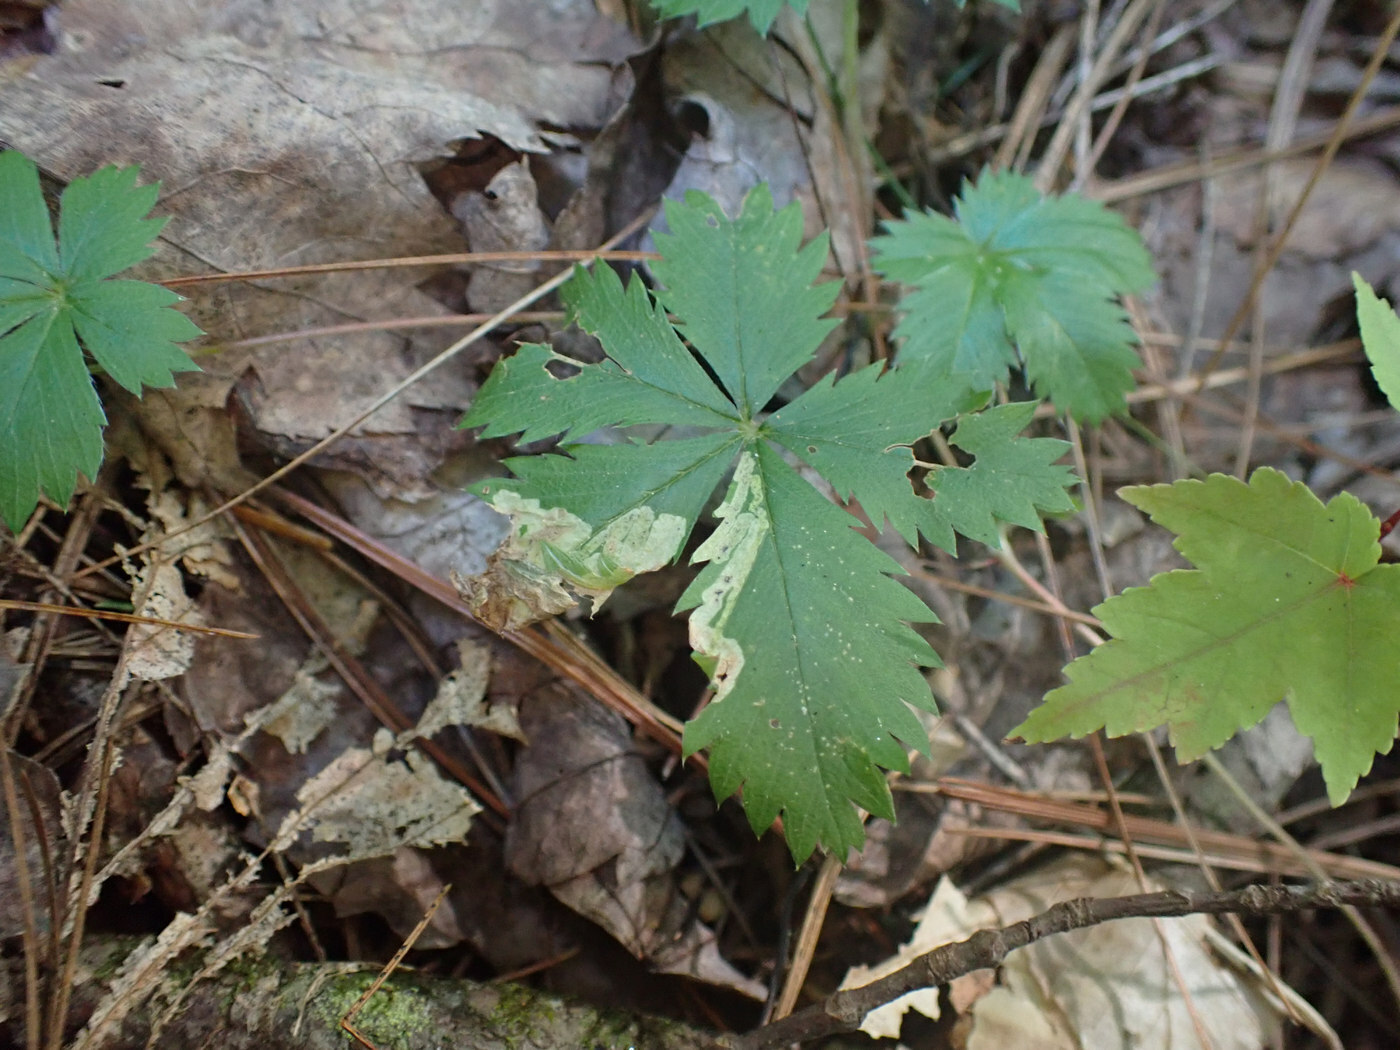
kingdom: Animalia
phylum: Arthropoda
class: Insecta
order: Diptera
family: Agromyzidae
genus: Agromyza
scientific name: Agromyza idaeiana
